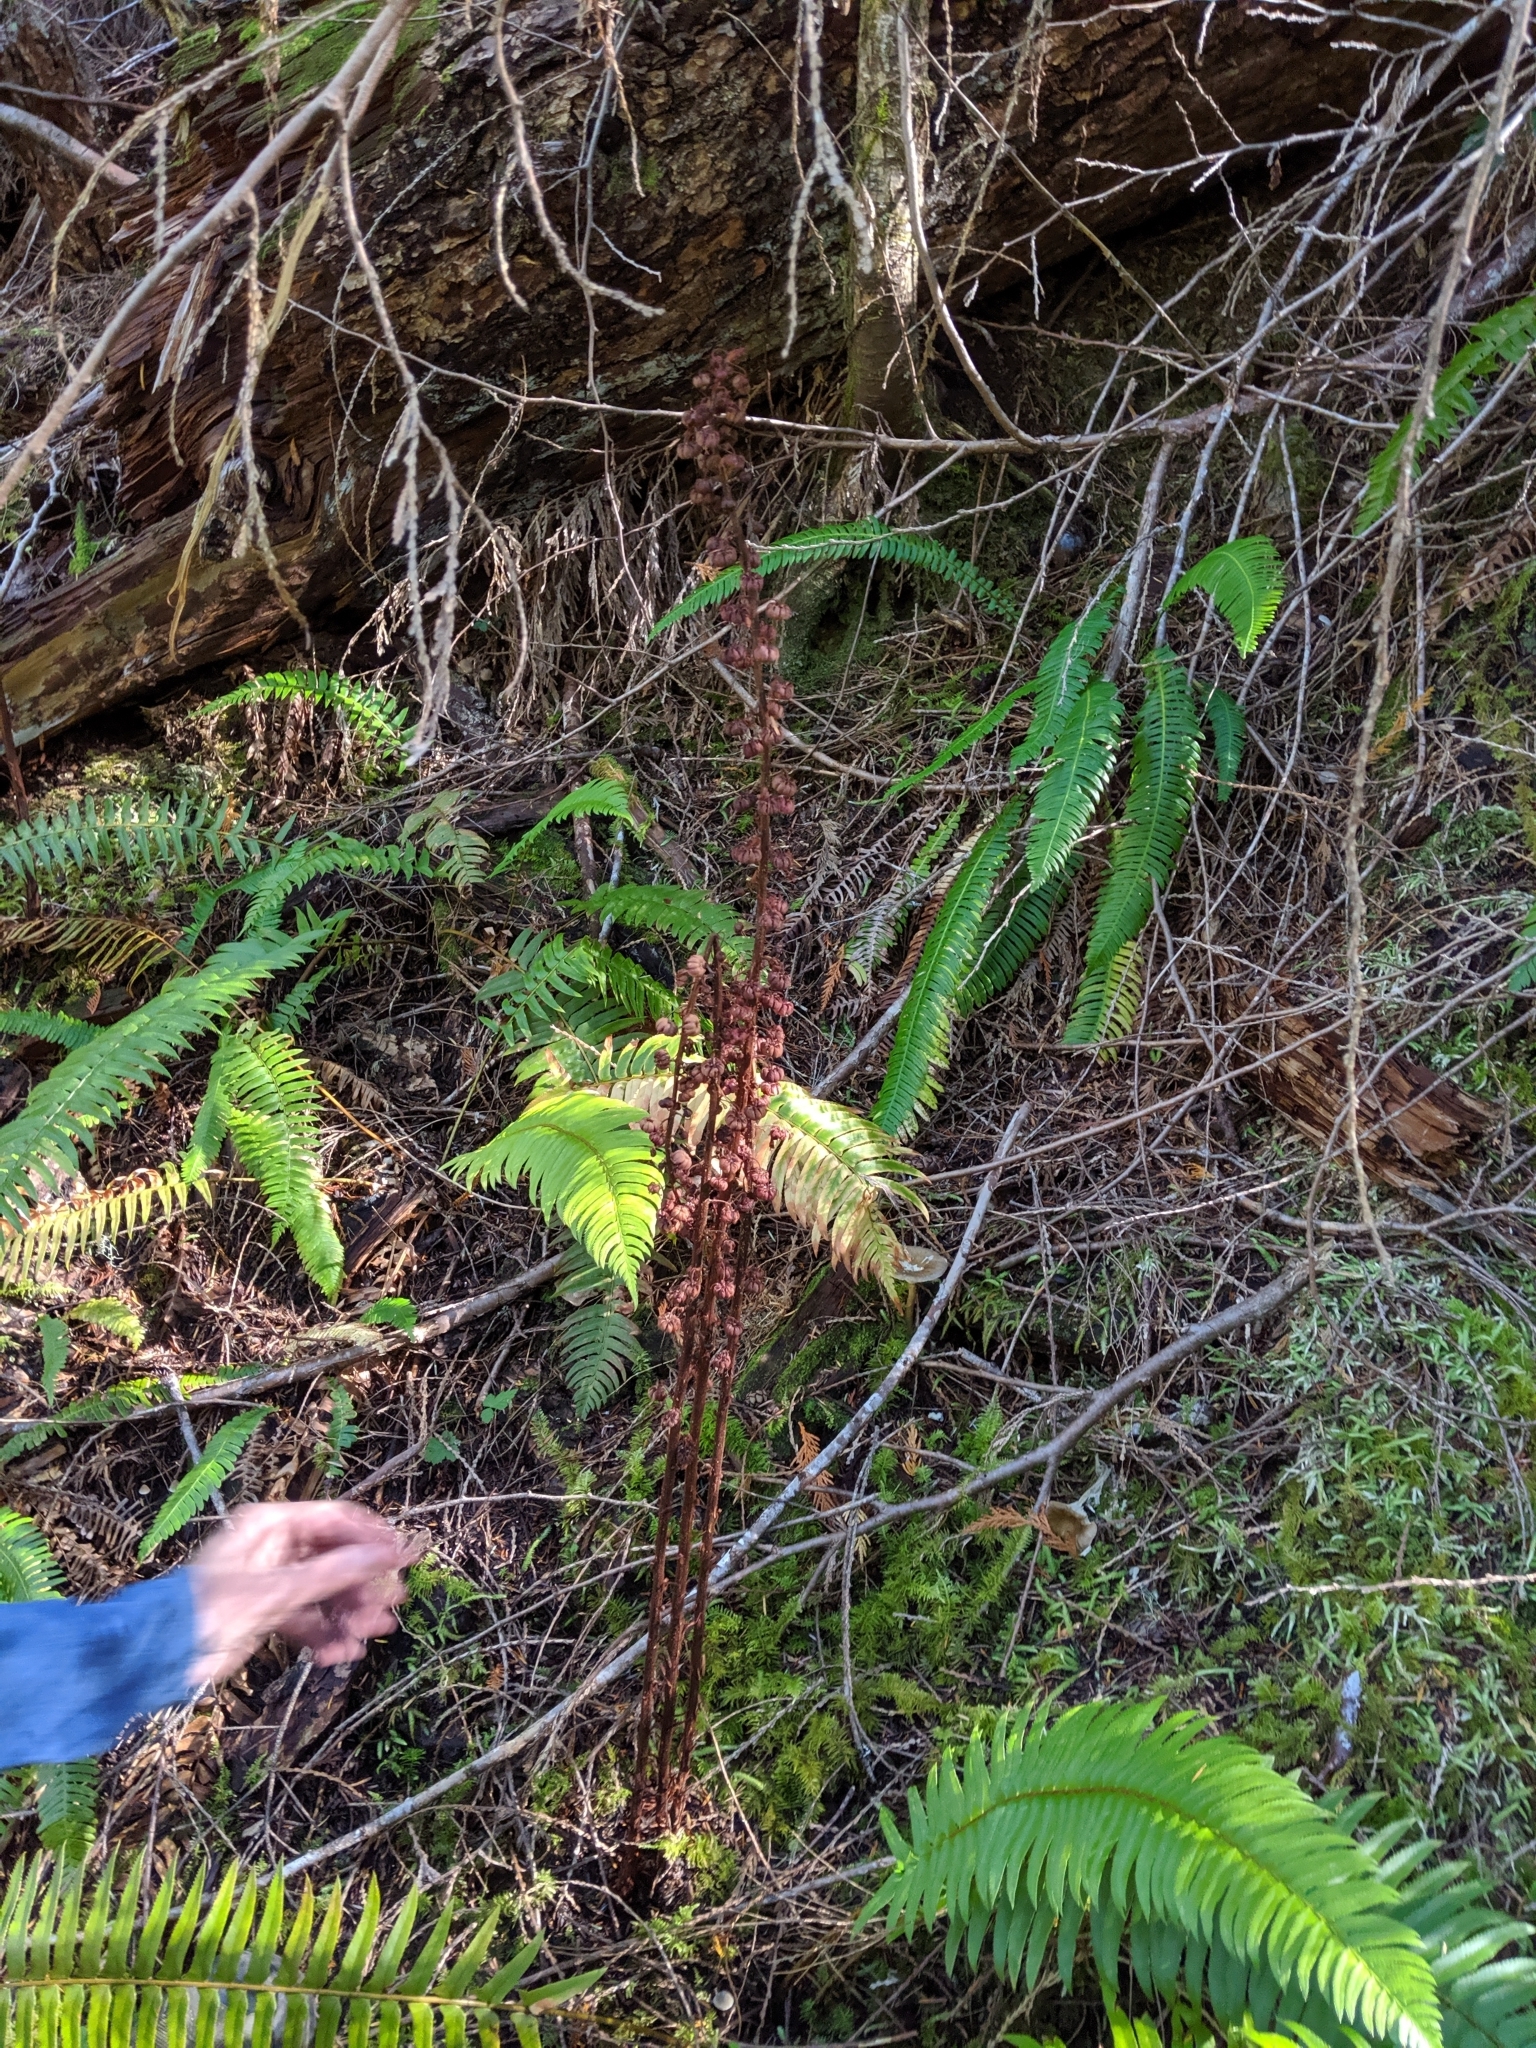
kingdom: Plantae
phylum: Tracheophyta
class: Magnoliopsida
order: Ericales
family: Ericaceae
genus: Pterospora
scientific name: Pterospora andromedea
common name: Giant bird's-nest
